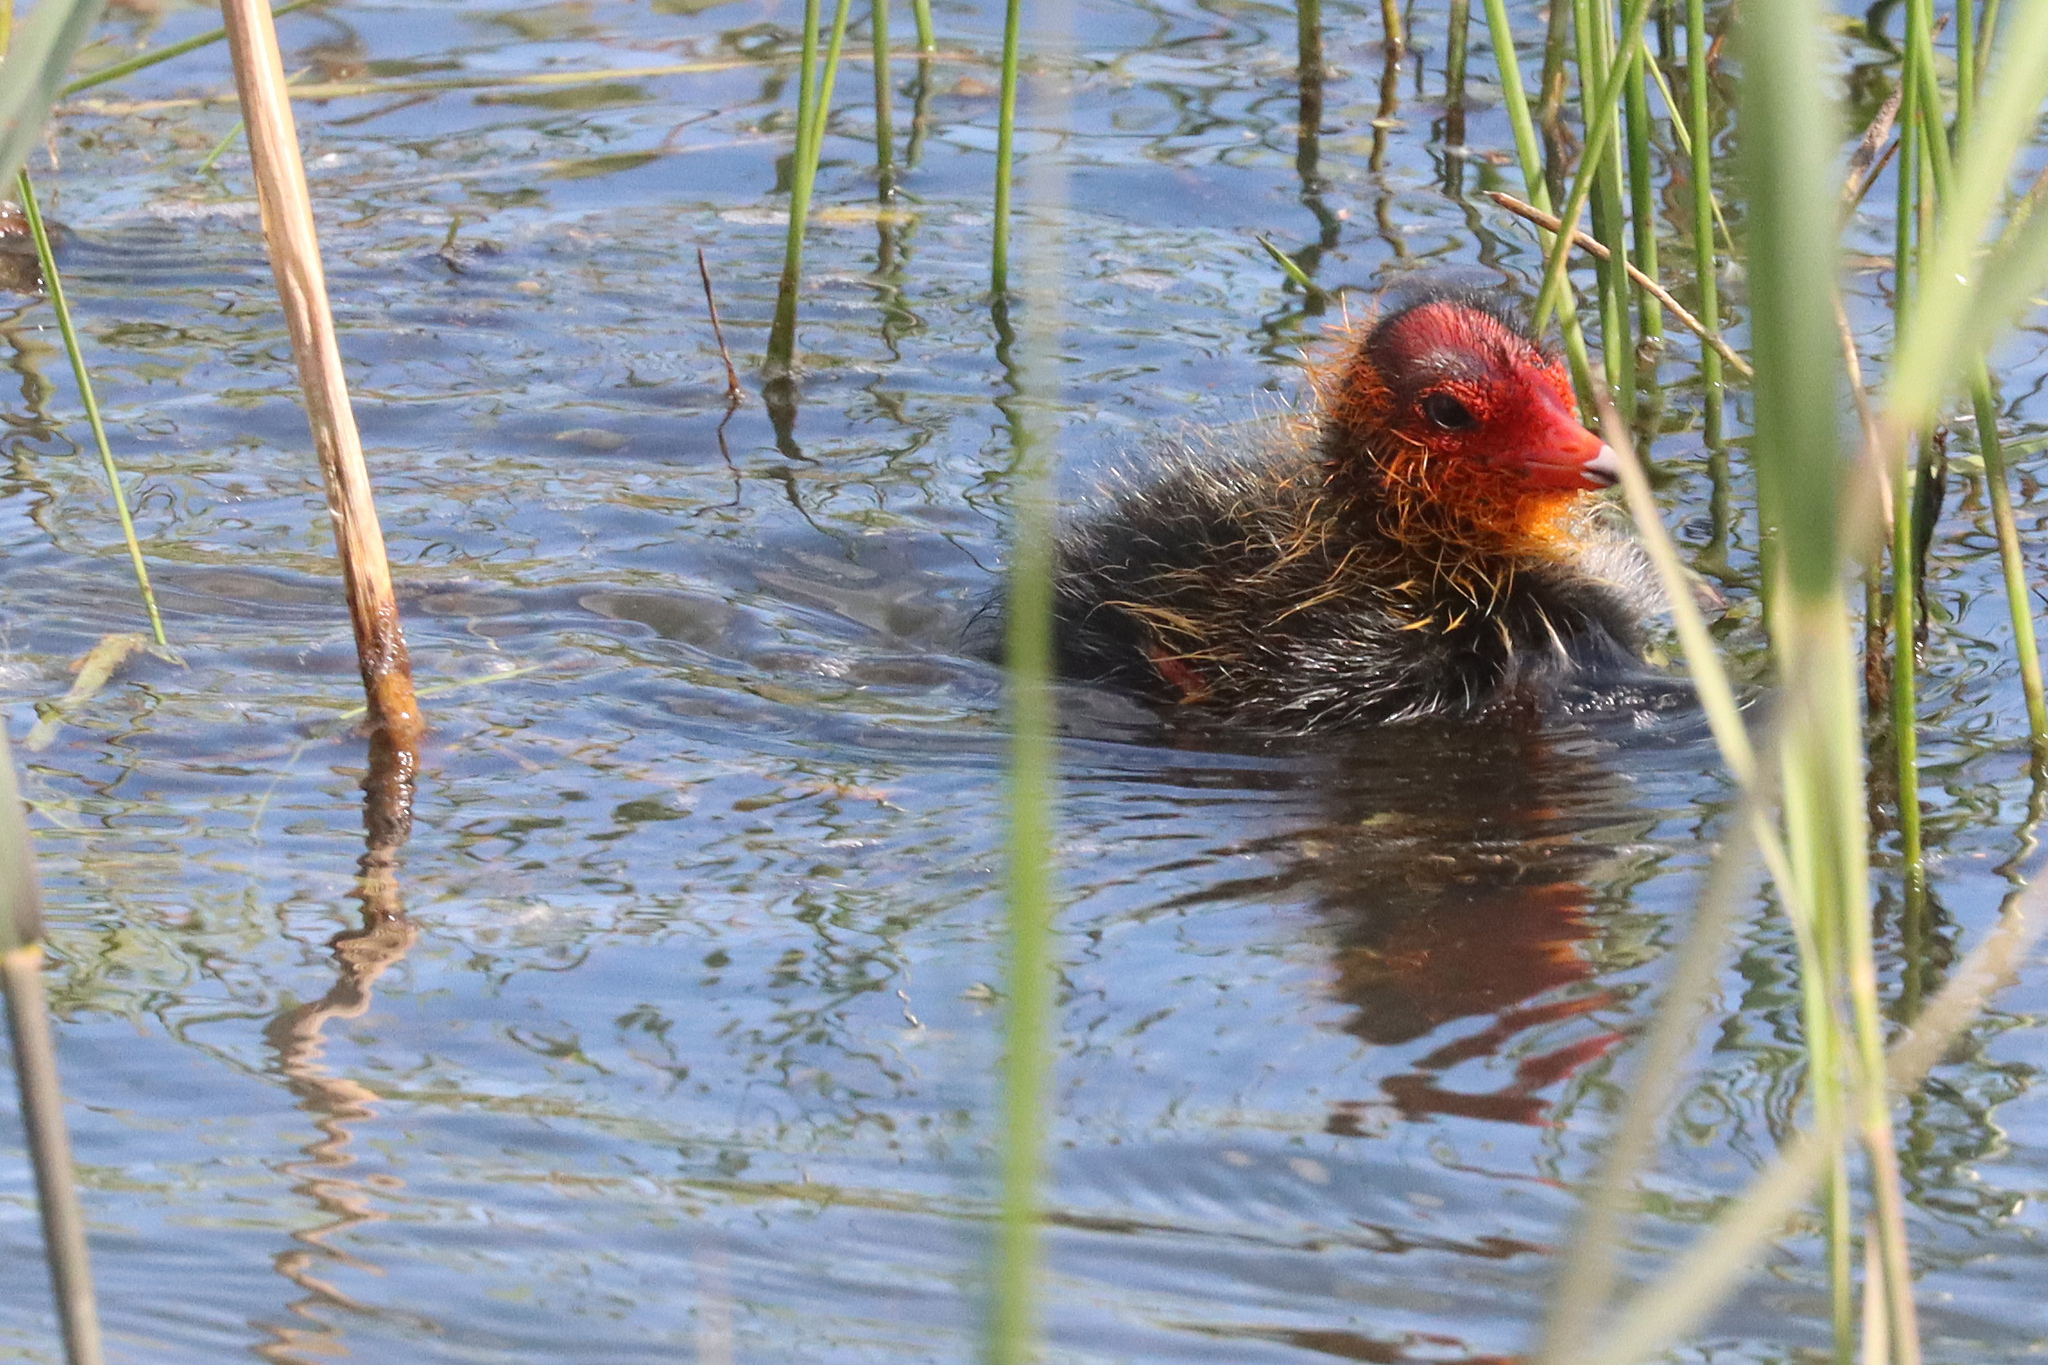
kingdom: Animalia
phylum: Chordata
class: Aves
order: Gruiformes
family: Rallidae
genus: Fulica
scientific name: Fulica atra
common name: Eurasian coot
